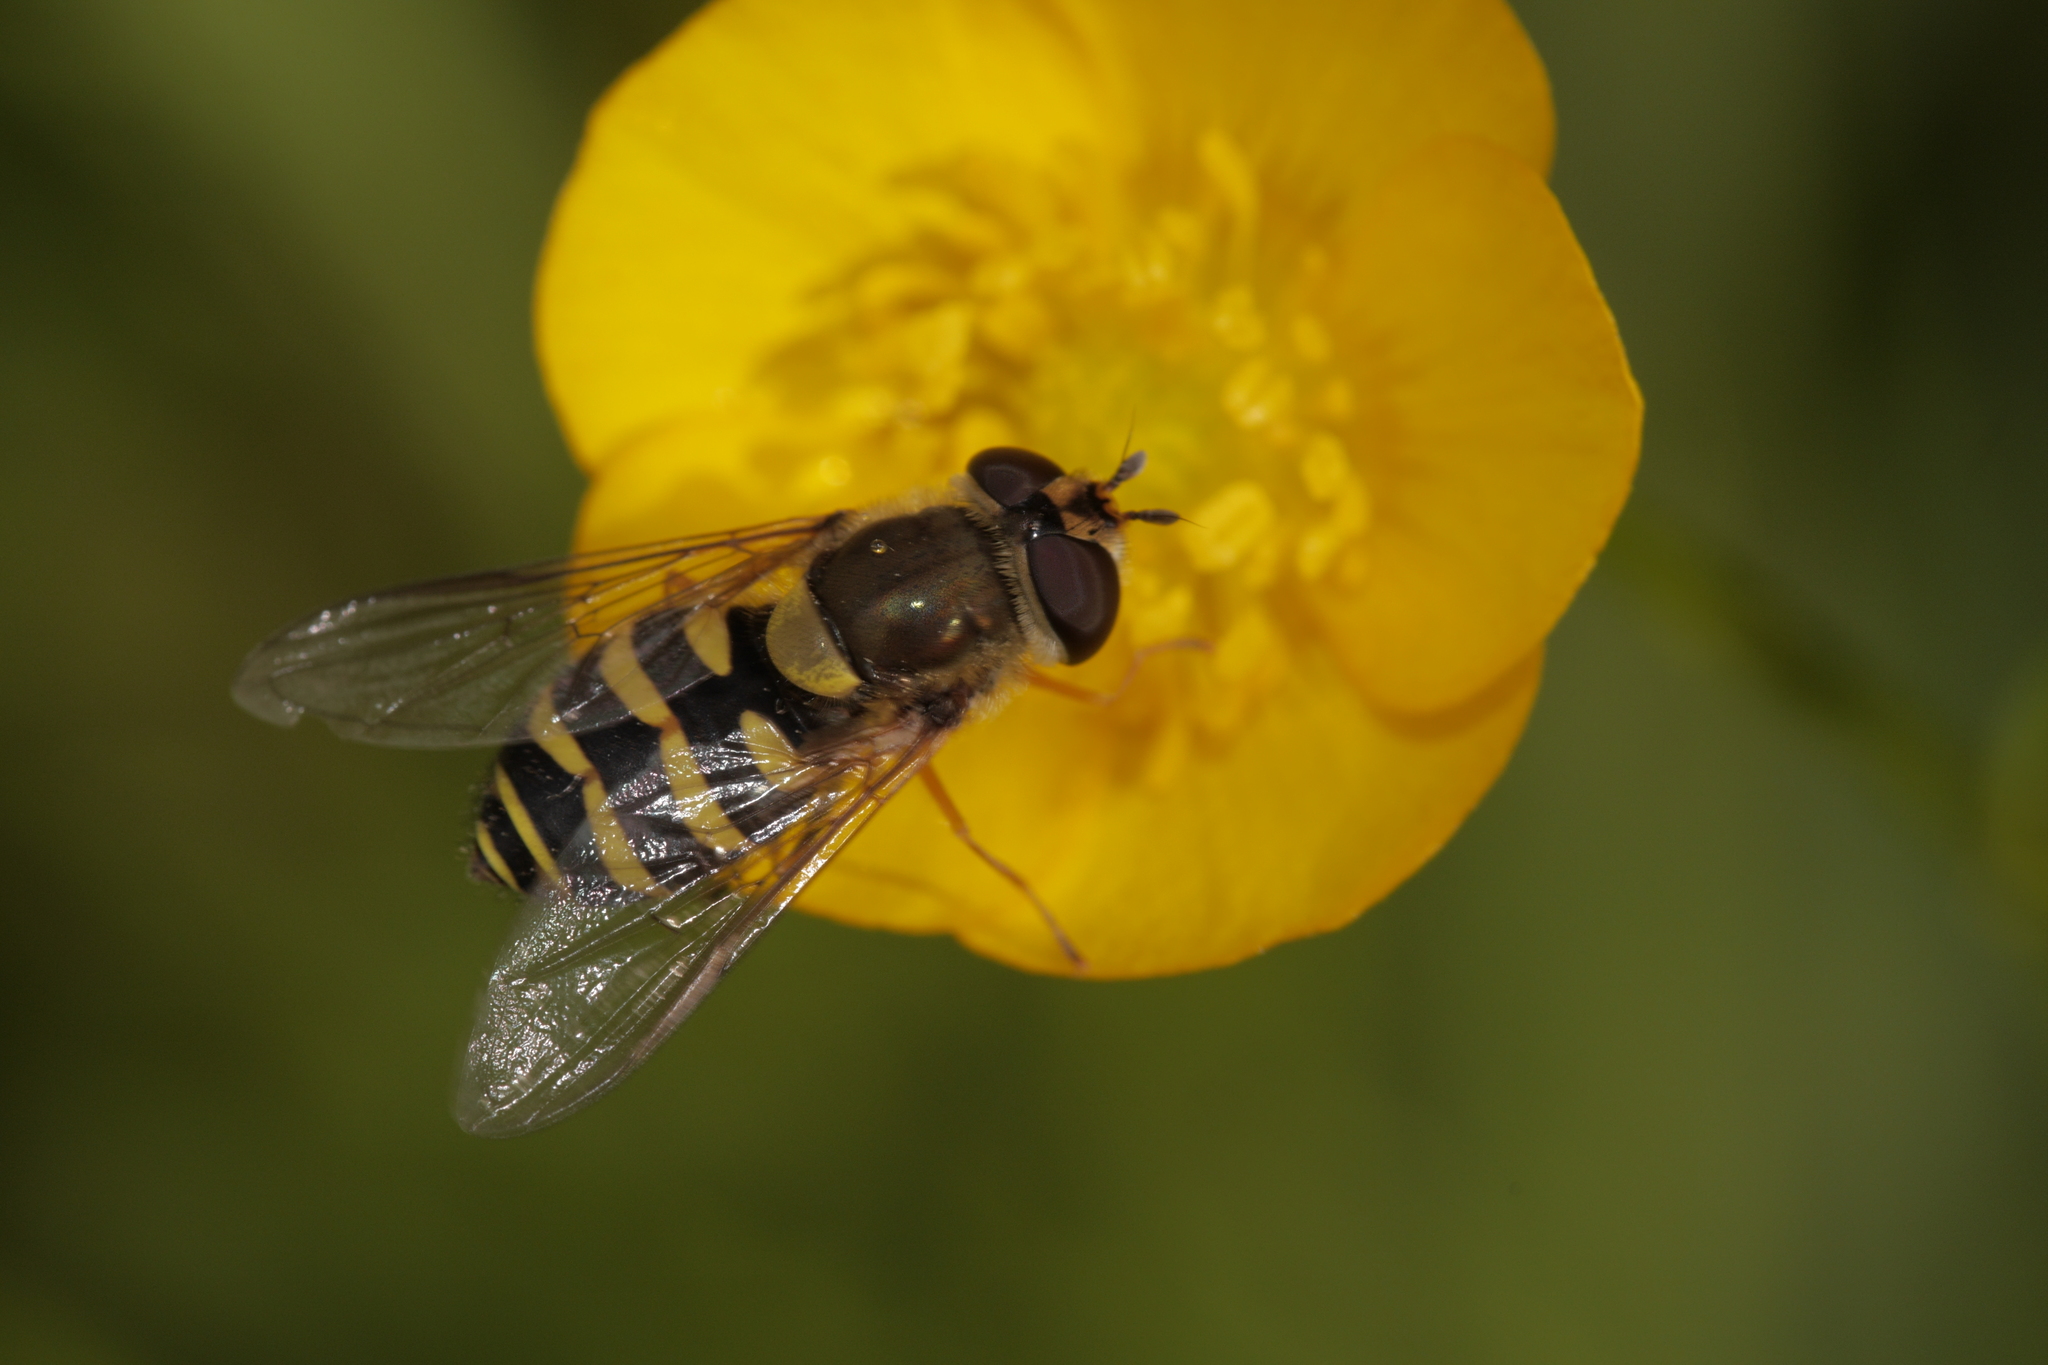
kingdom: Animalia
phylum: Arthropoda
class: Insecta
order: Diptera
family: Syrphidae
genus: Syrphus
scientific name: Syrphus
